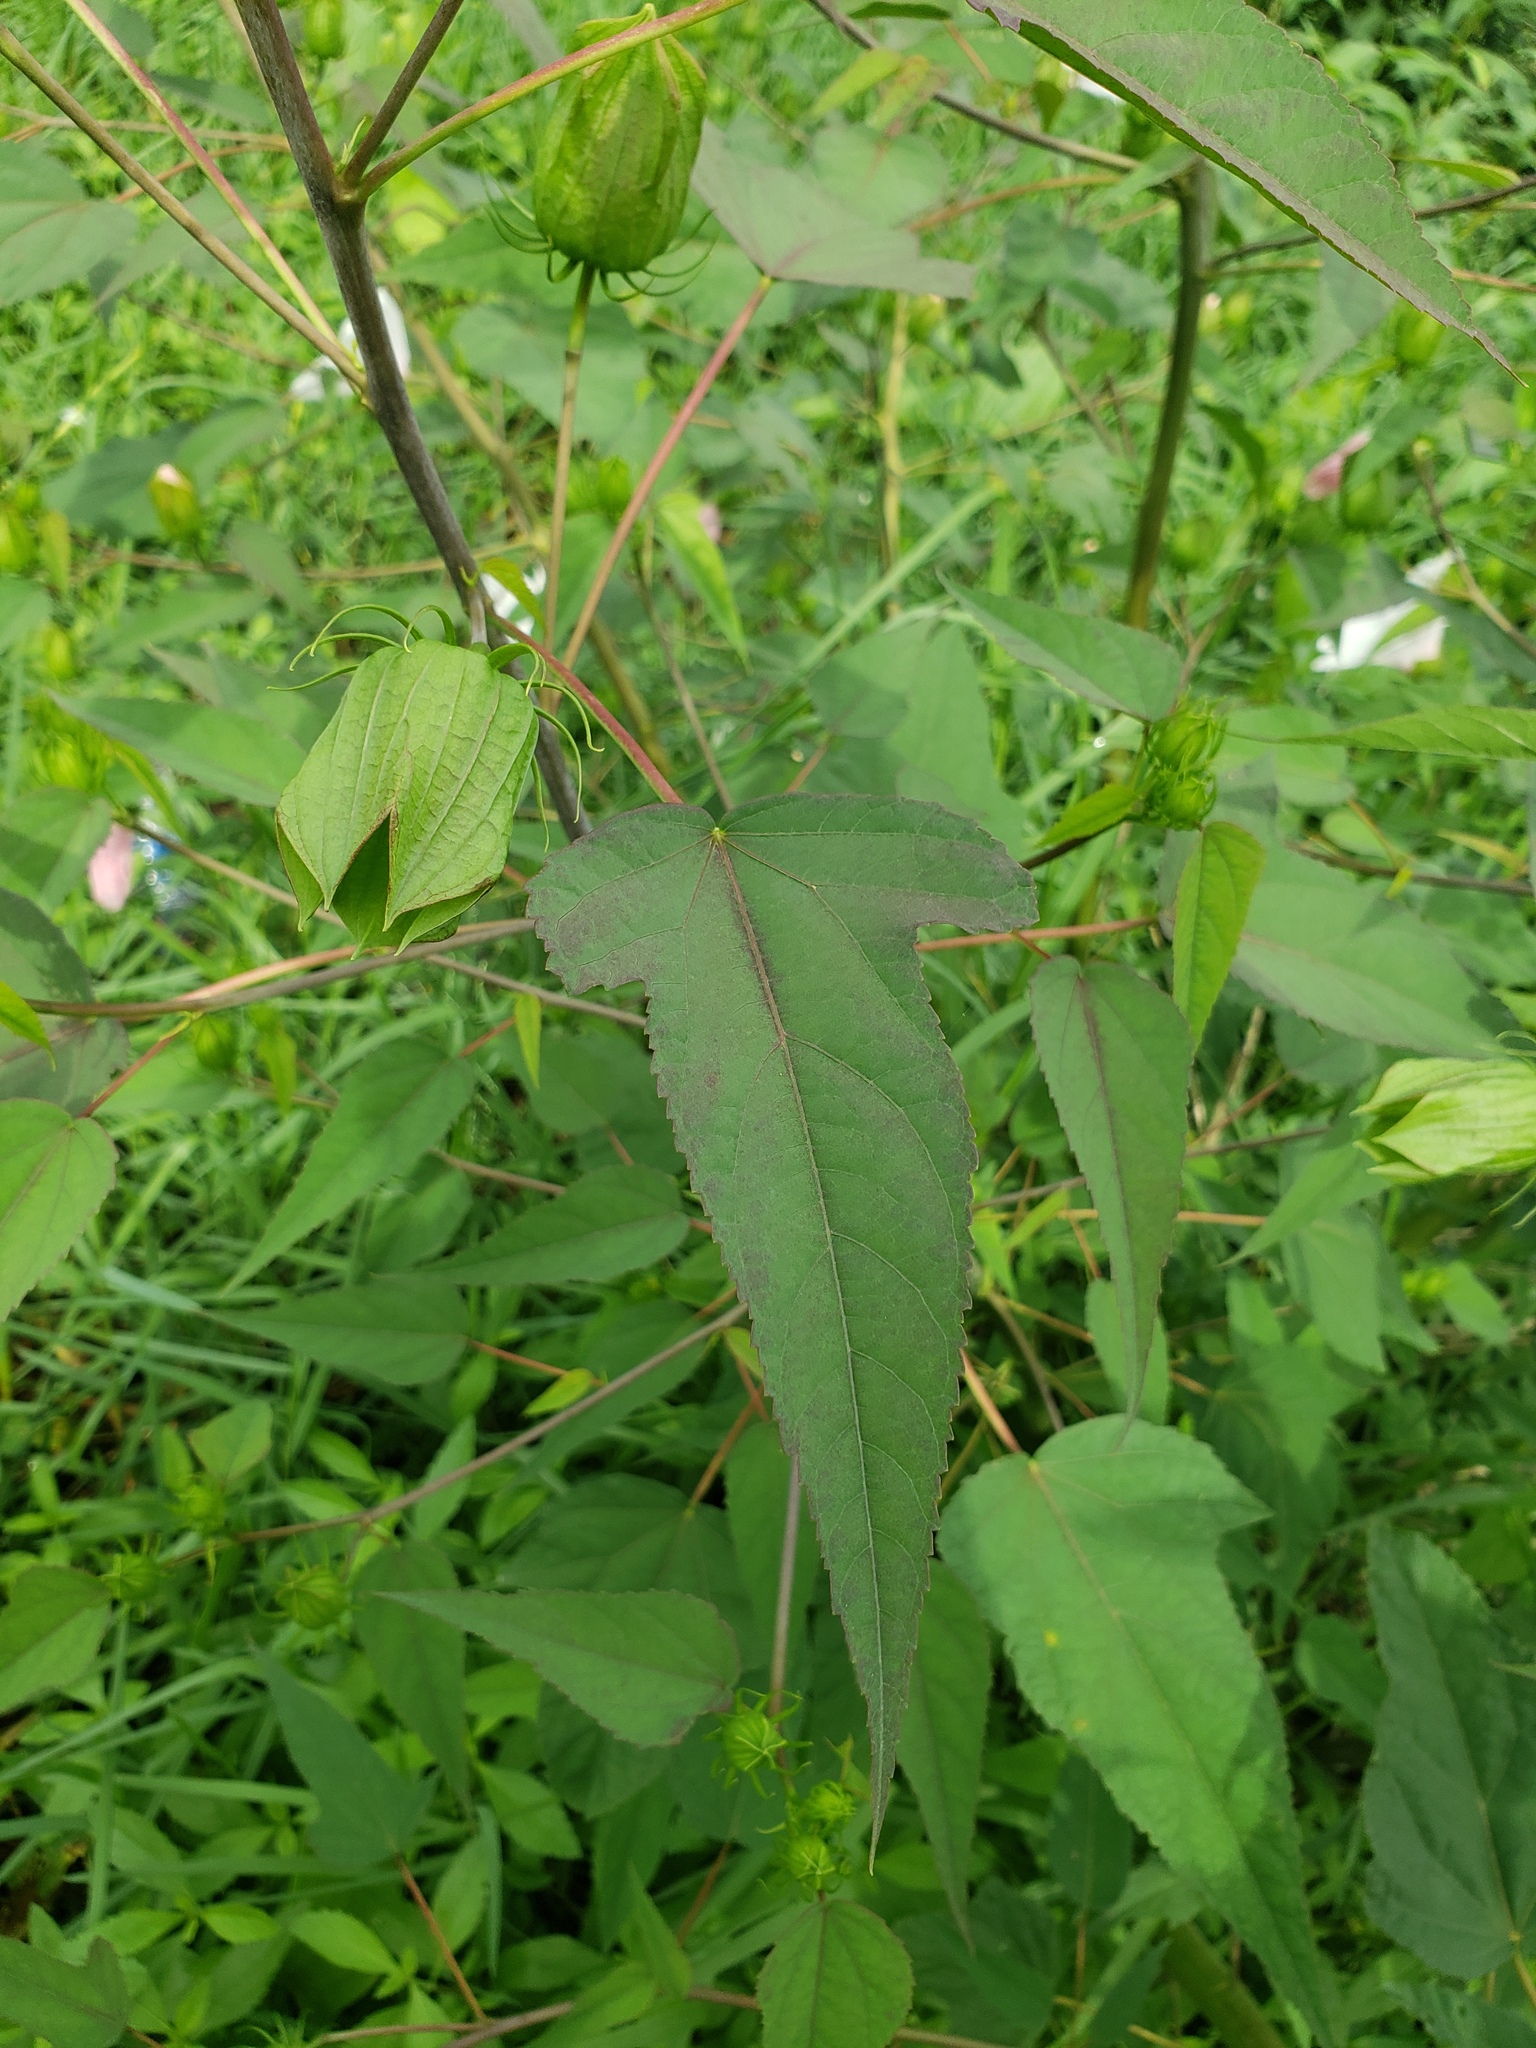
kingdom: Plantae
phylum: Tracheophyta
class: Magnoliopsida
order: Malvales
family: Malvaceae
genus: Hibiscus
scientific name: Hibiscus laevis
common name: Scarlet rose-mallow
